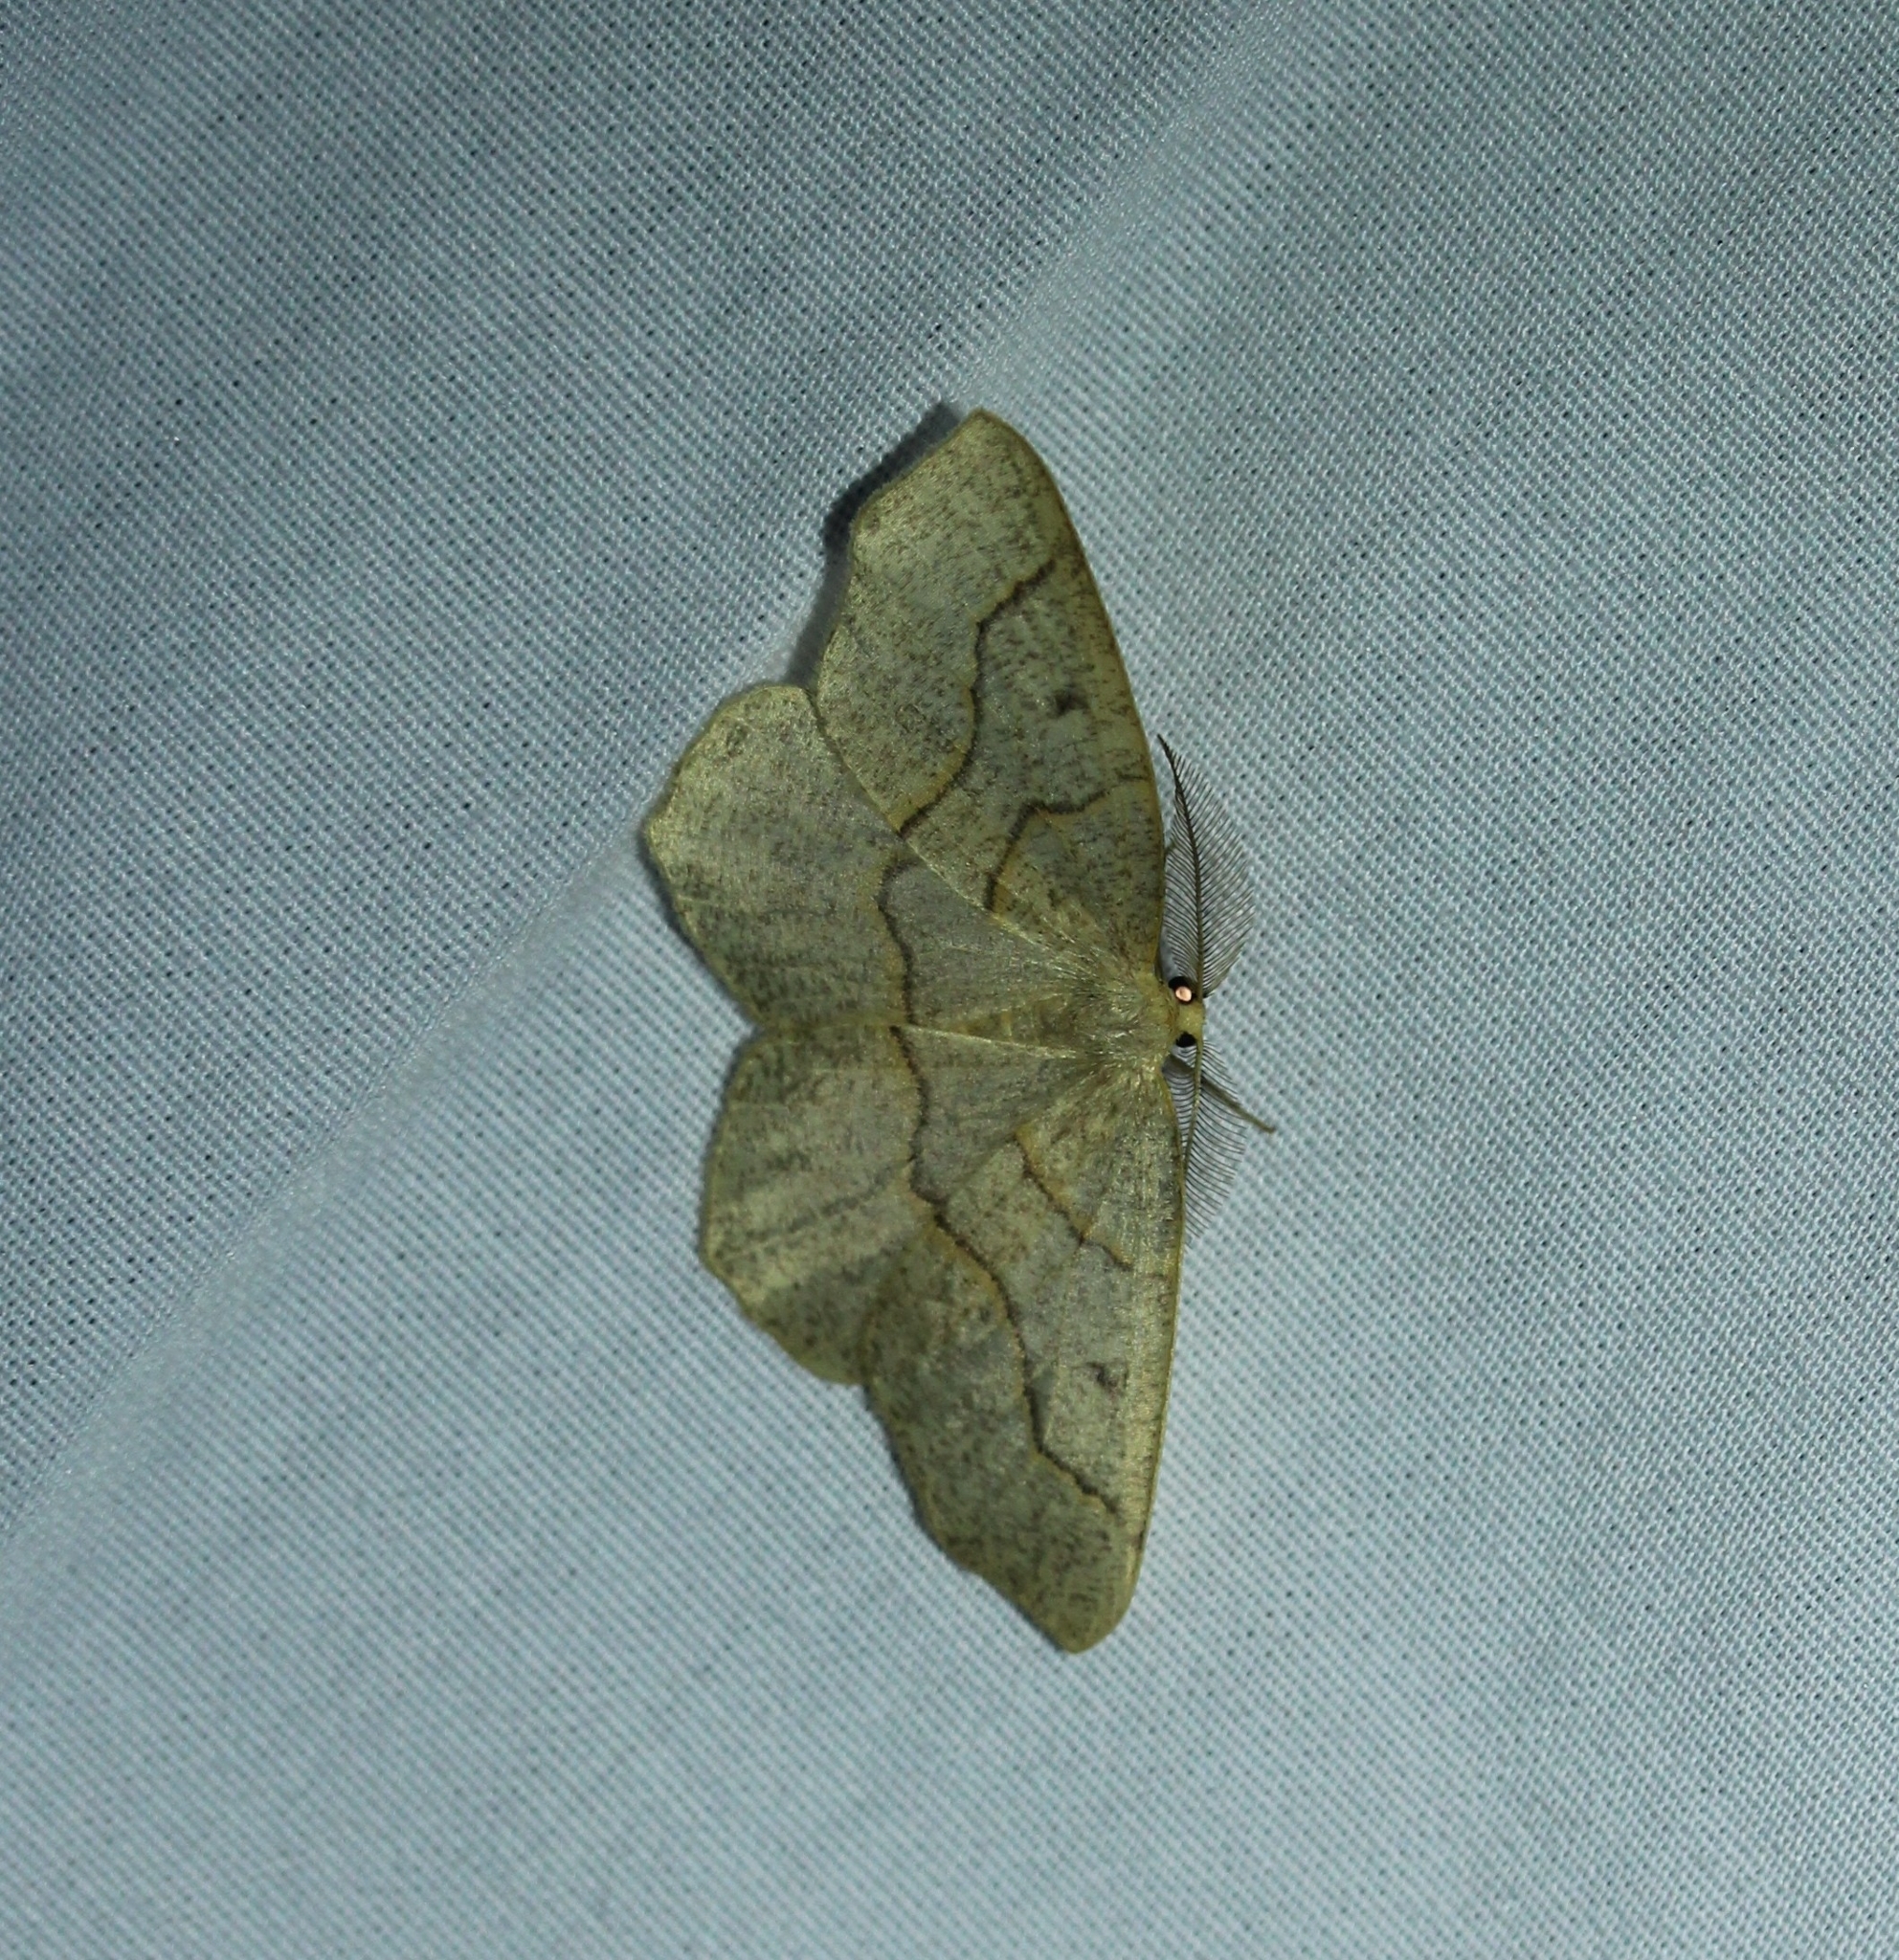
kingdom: Animalia
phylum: Arthropoda
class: Insecta
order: Lepidoptera
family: Geometridae
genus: Lambdina
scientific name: Lambdina fiscellaria
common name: Hemlock looper
